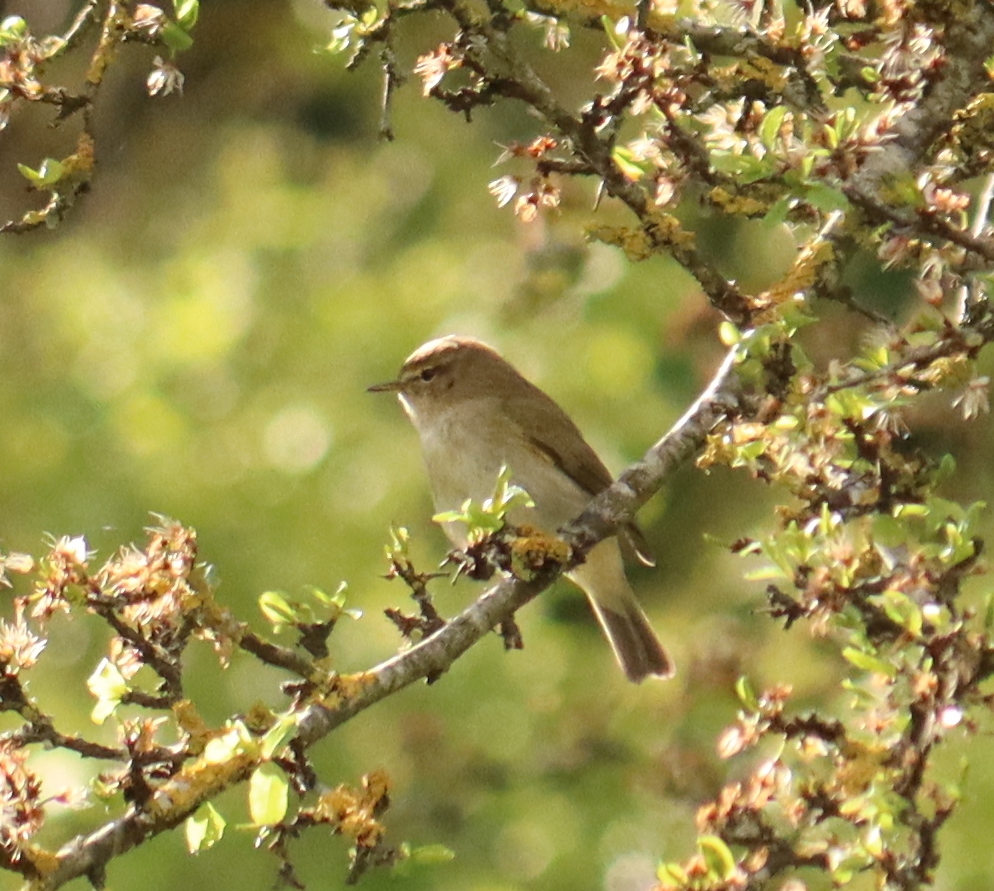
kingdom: Animalia
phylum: Chordata
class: Aves
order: Passeriformes
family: Phylloscopidae
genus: Phylloscopus
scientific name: Phylloscopus collybita
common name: Common chiffchaff
